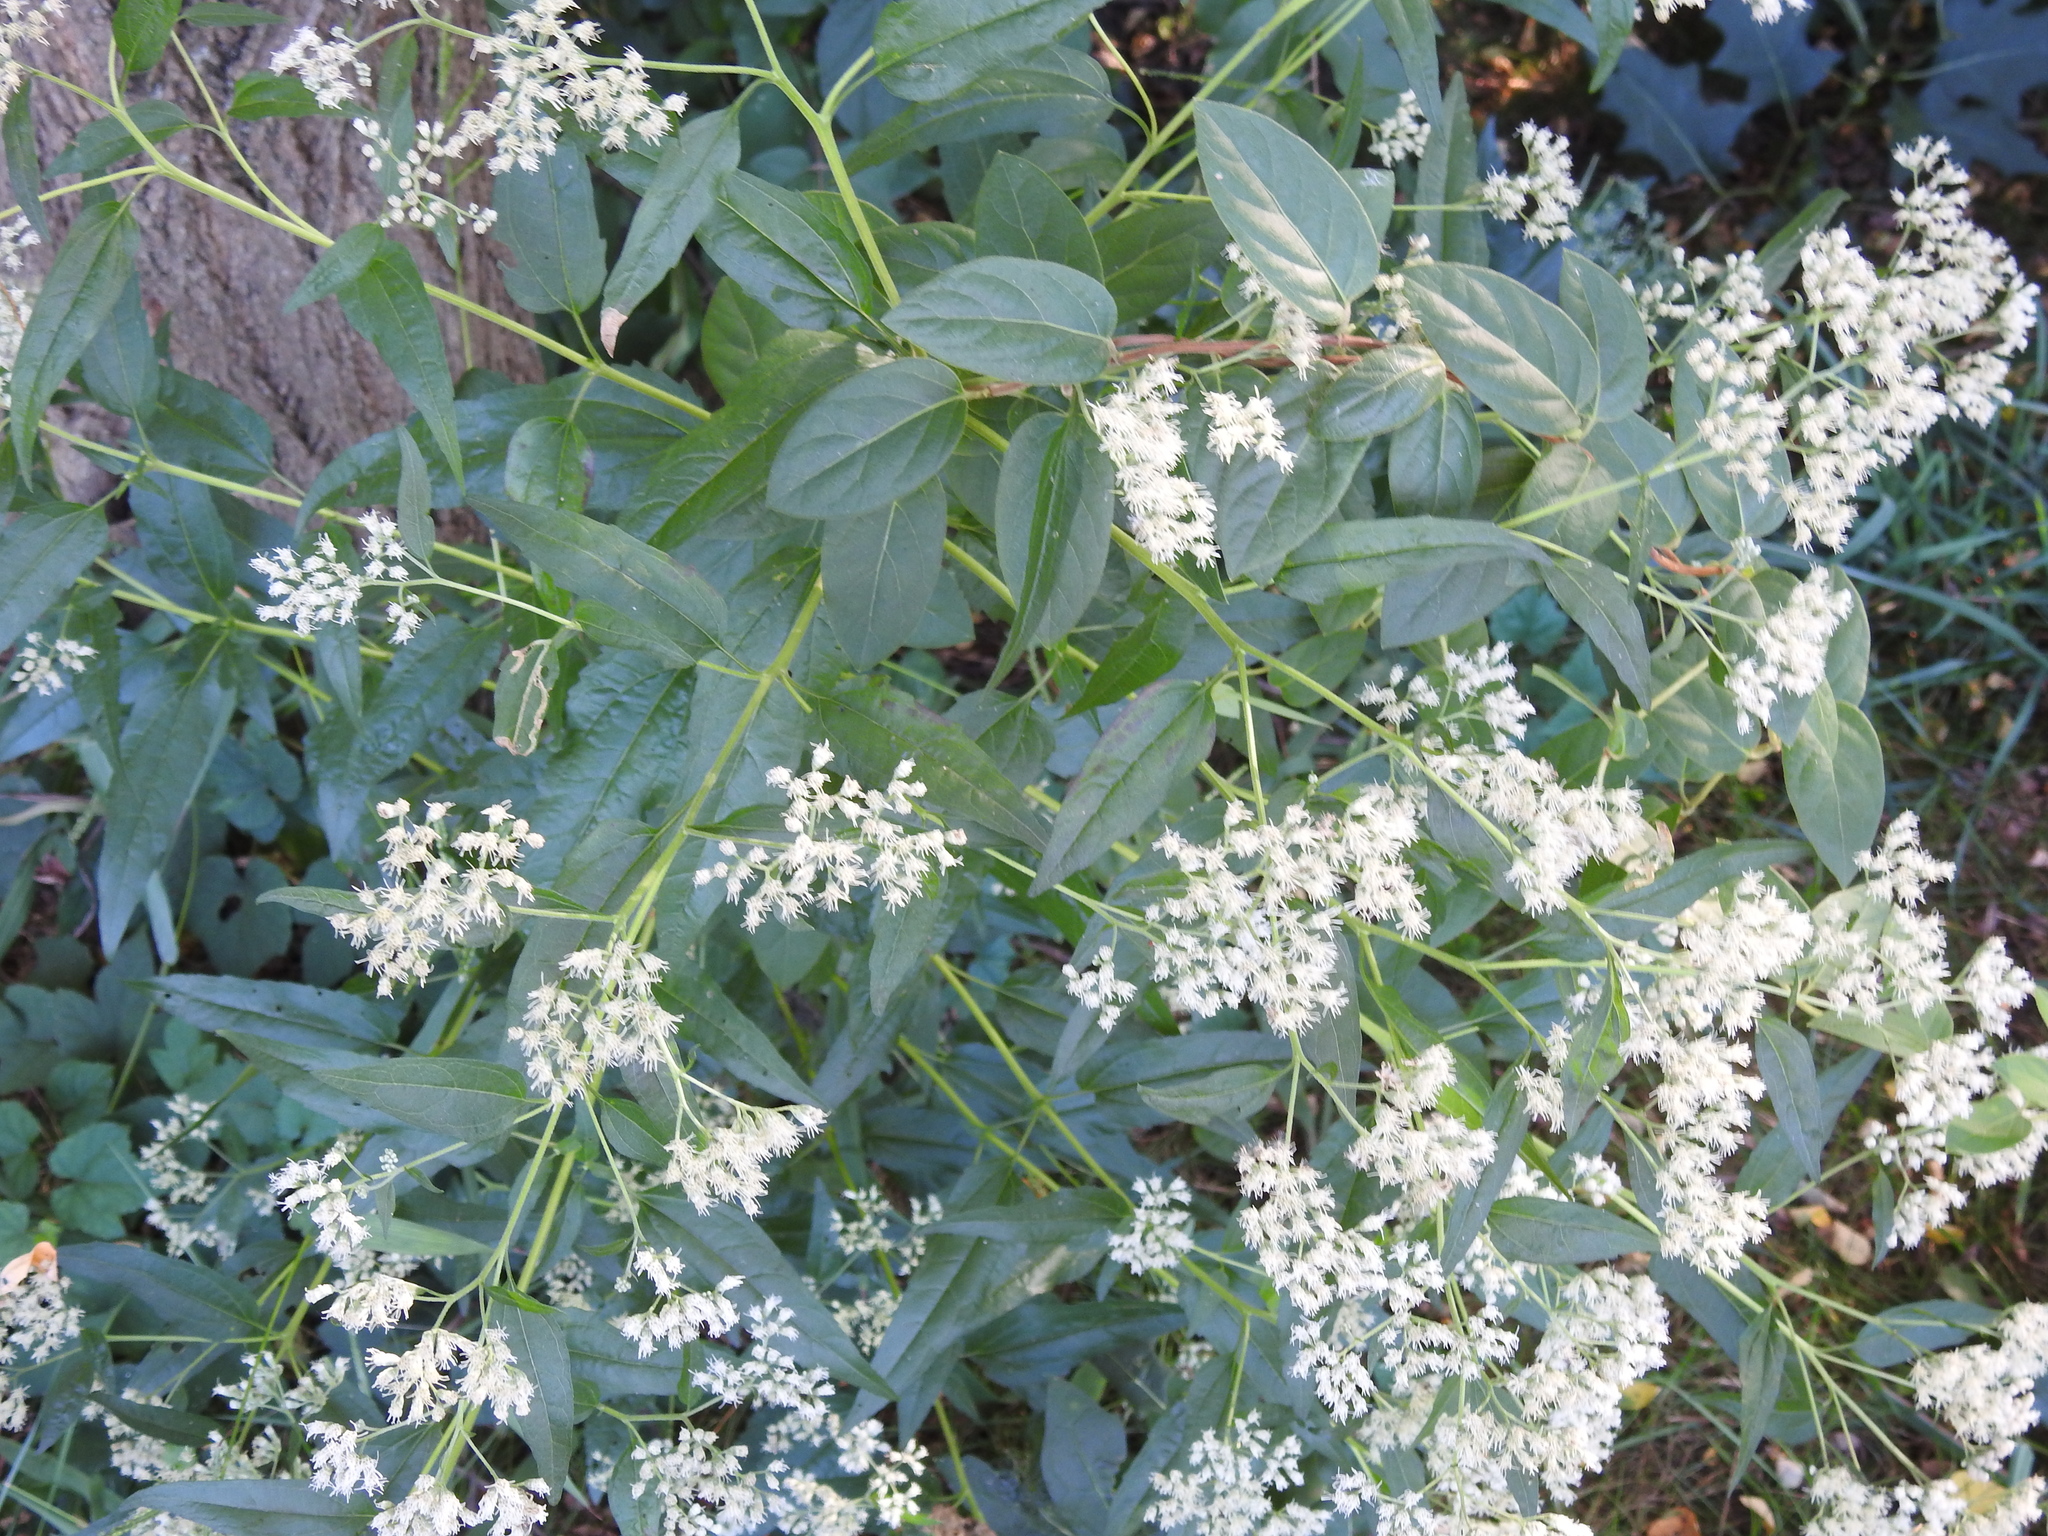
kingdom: Plantae
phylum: Tracheophyta
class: Magnoliopsida
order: Asterales
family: Asteraceae
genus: Eupatorium
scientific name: Eupatorium serotinum
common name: Late boneset
